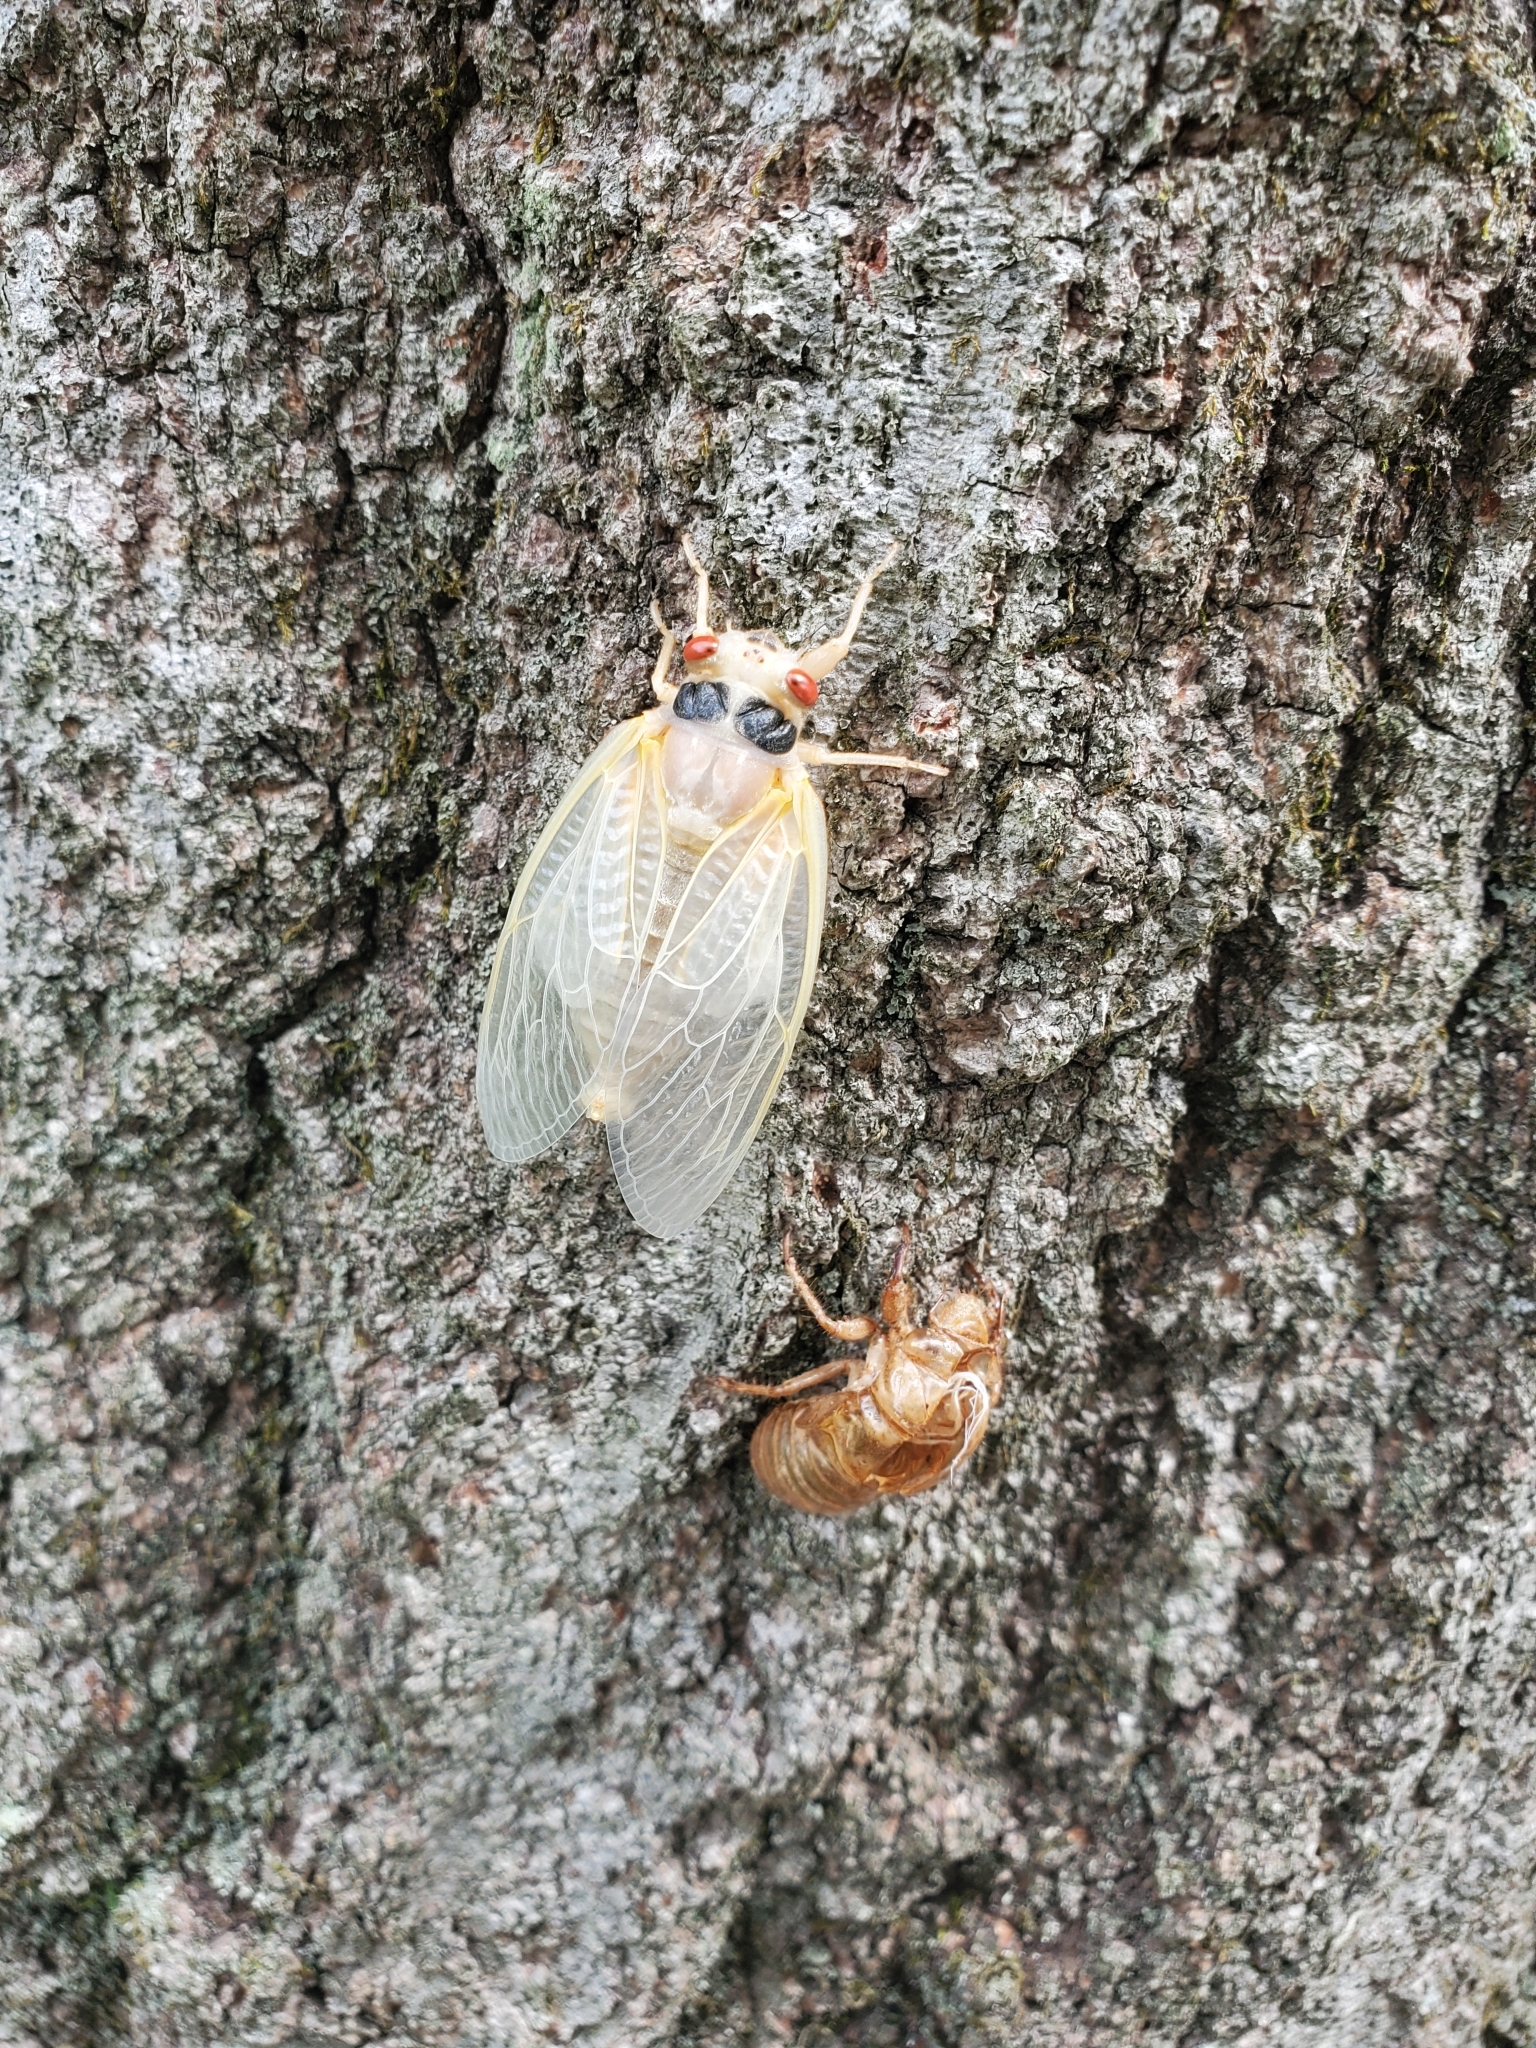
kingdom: Animalia
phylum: Arthropoda
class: Insecta
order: Hemiptera
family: Cicadidae
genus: Magicicada
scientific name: Magicicada
